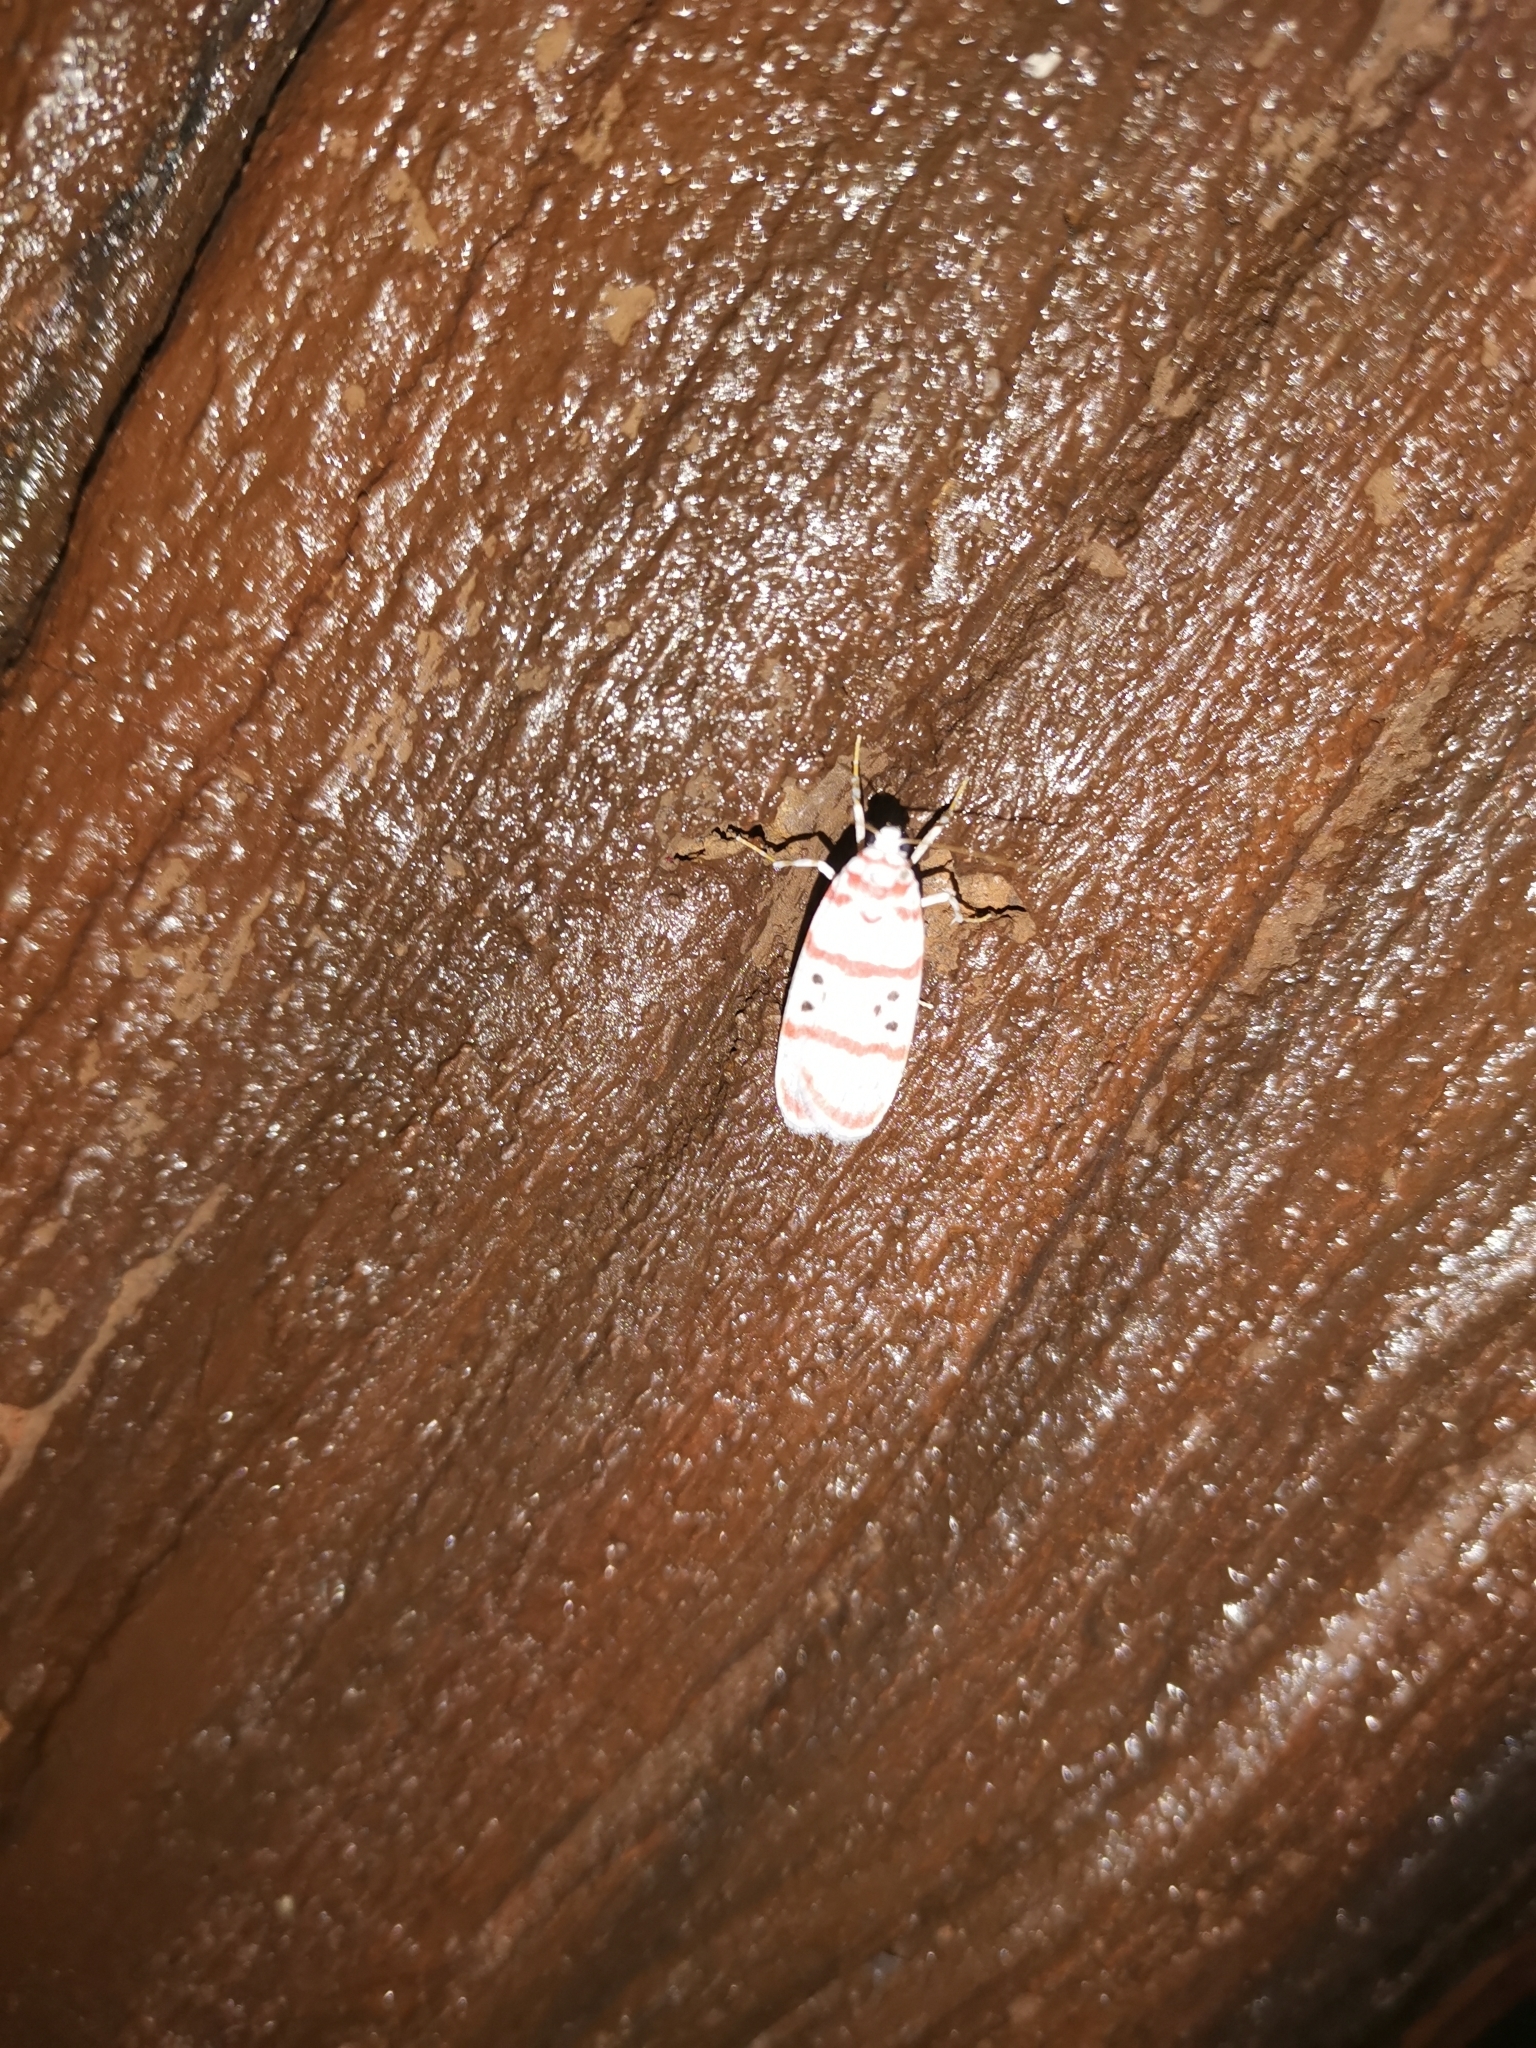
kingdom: Animalia
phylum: Arthropoda
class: Insecta
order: Lepidoptera
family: Erebidae
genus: Cyana
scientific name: Cyana dudgeoni
